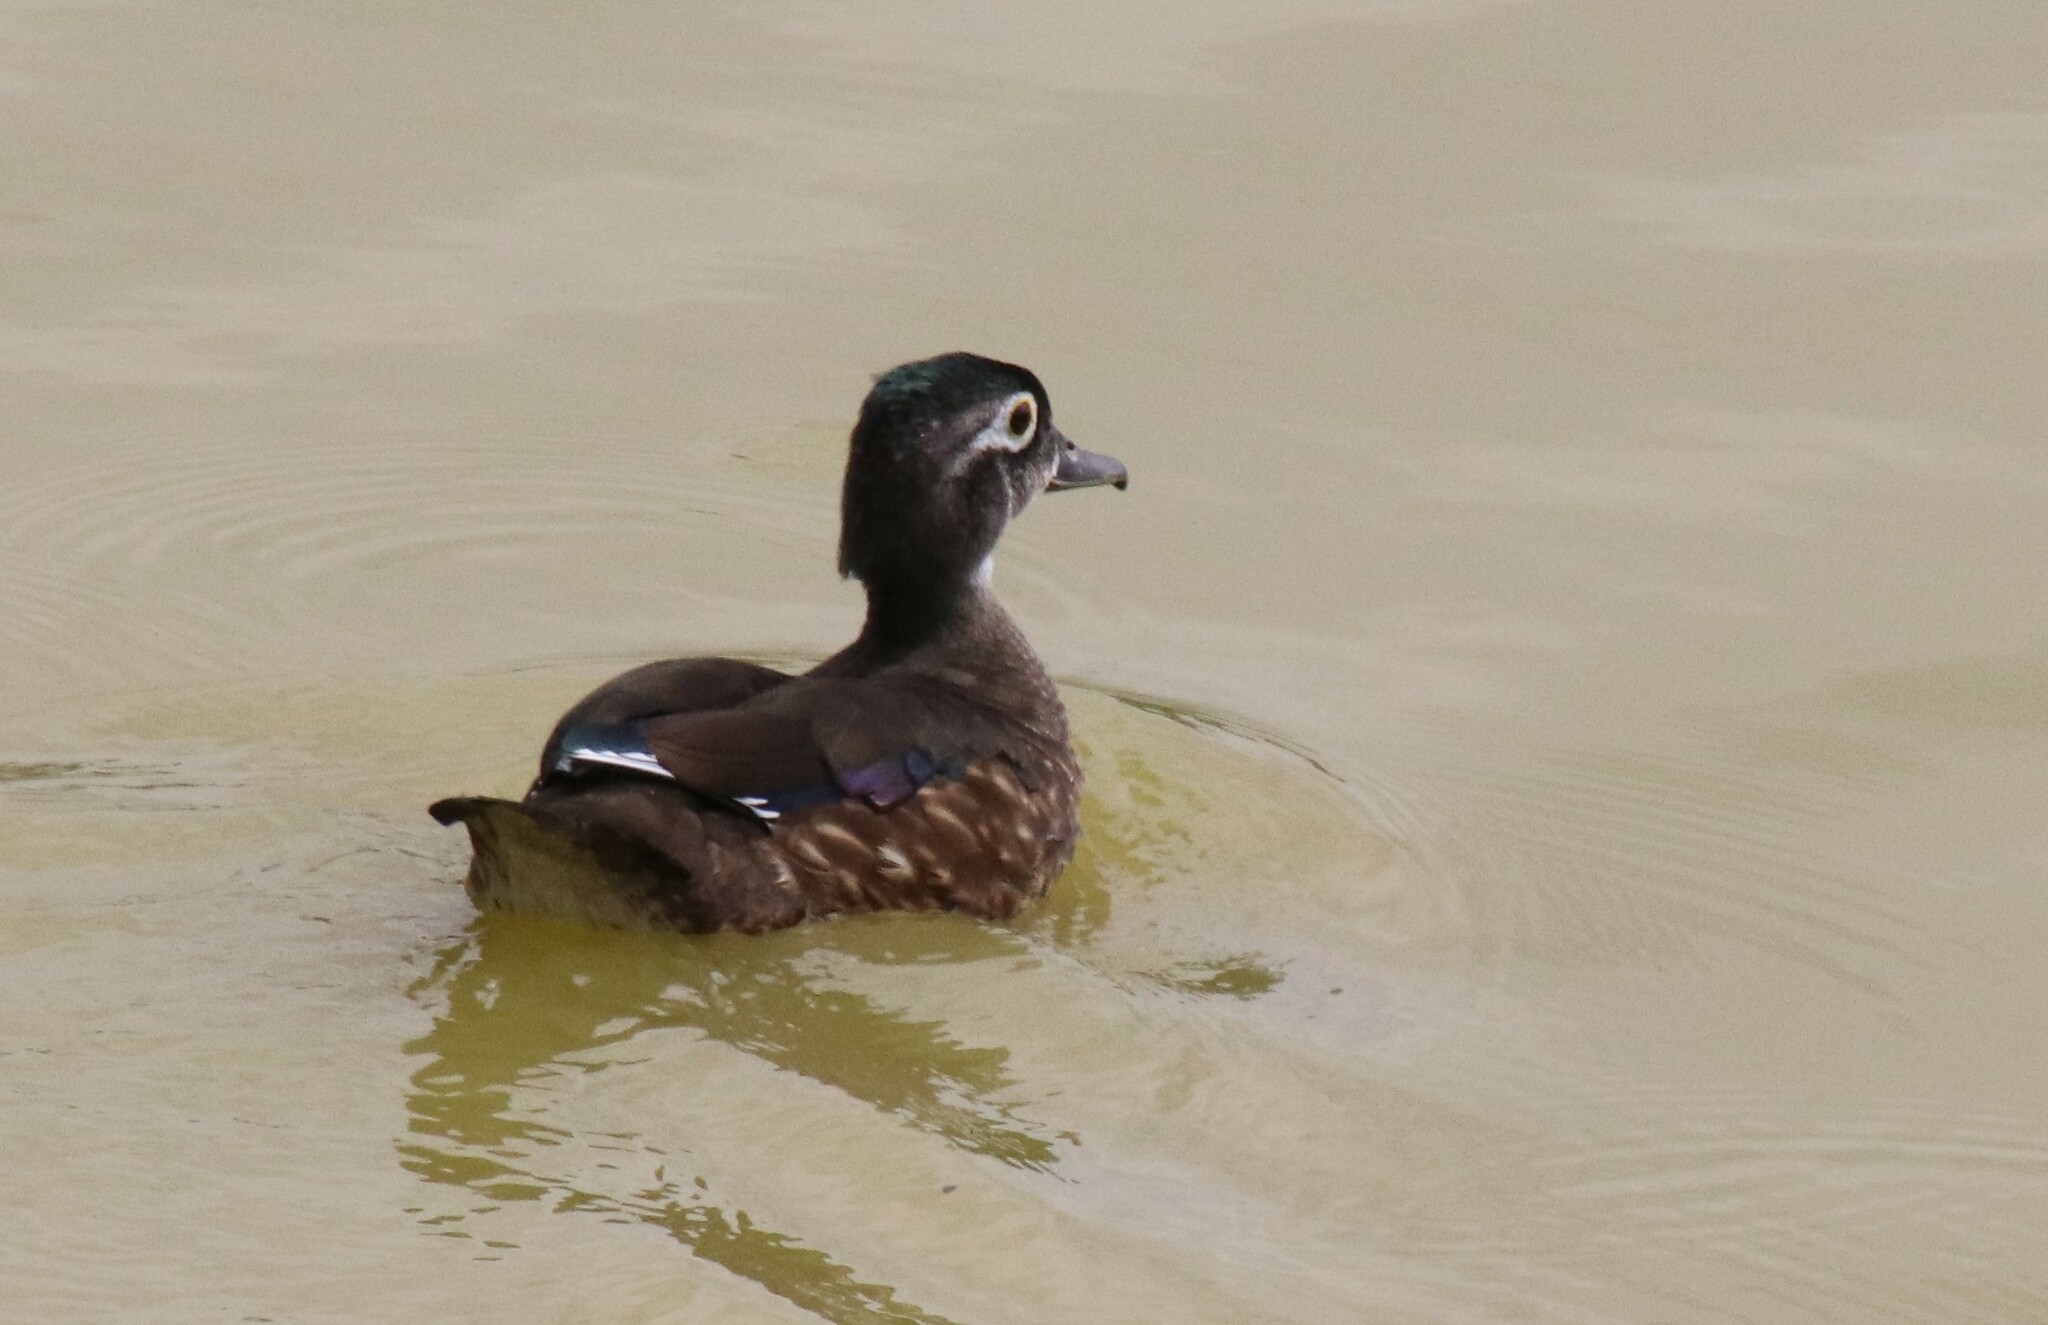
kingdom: Animalia
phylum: Chordata
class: Aves
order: Anseriformes
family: Anatidae
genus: Aix
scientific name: Aix sponsa
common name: Wood duck
